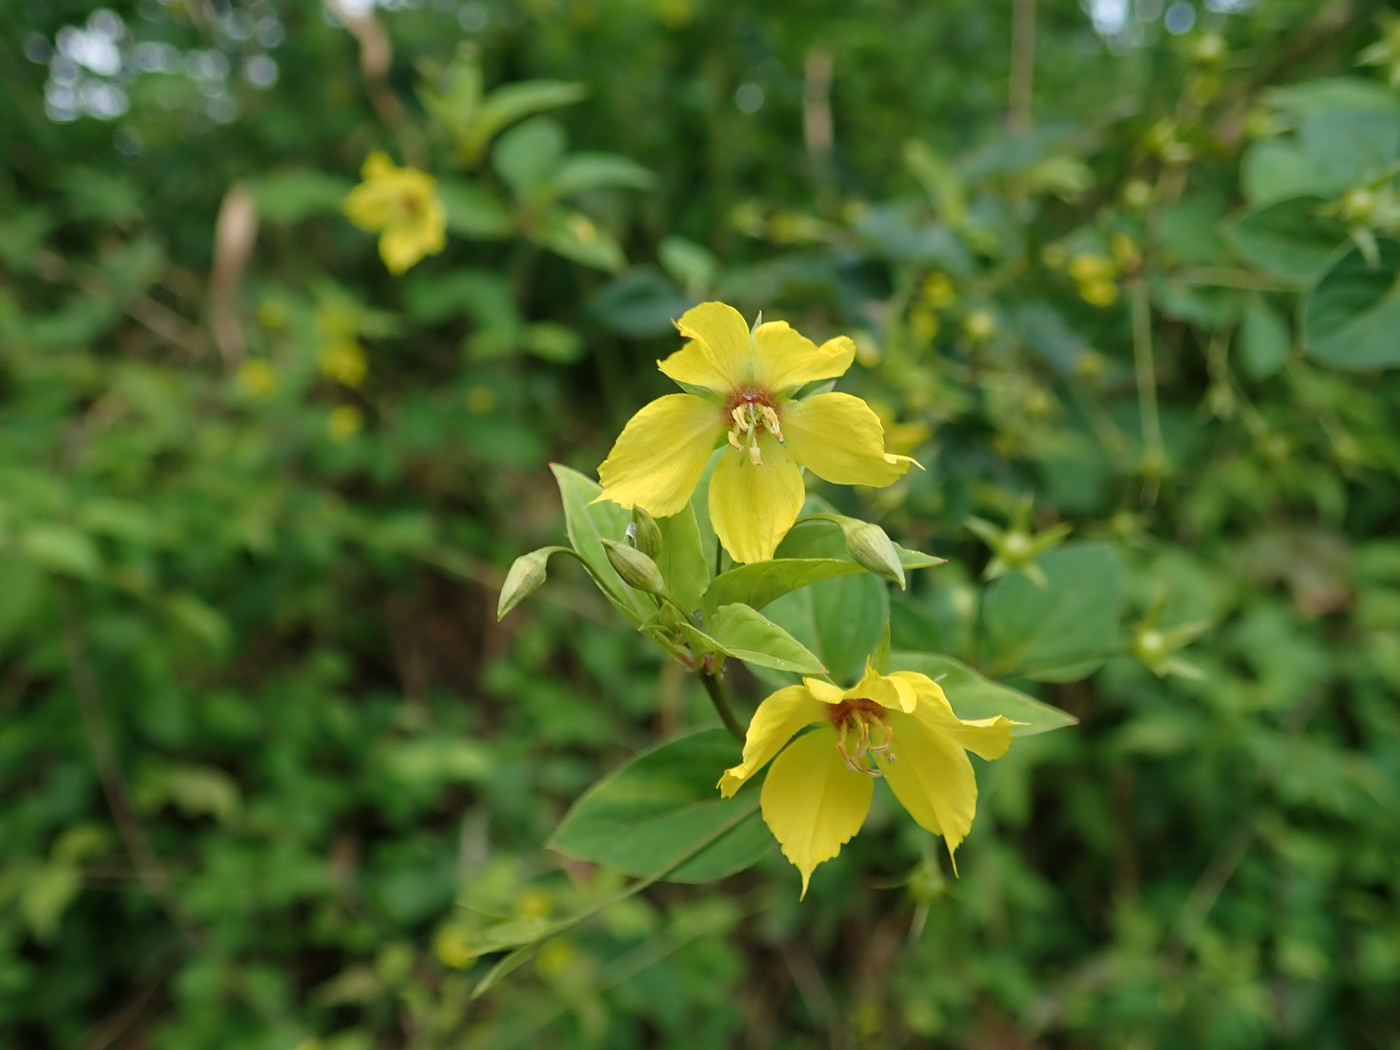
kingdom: Plantae
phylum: Tracheophyta
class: Magnoliopsida
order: Ericales
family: Primulaceae
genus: Lysimachia
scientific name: Lysimachia ciliata
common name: Fringed loosestrife
